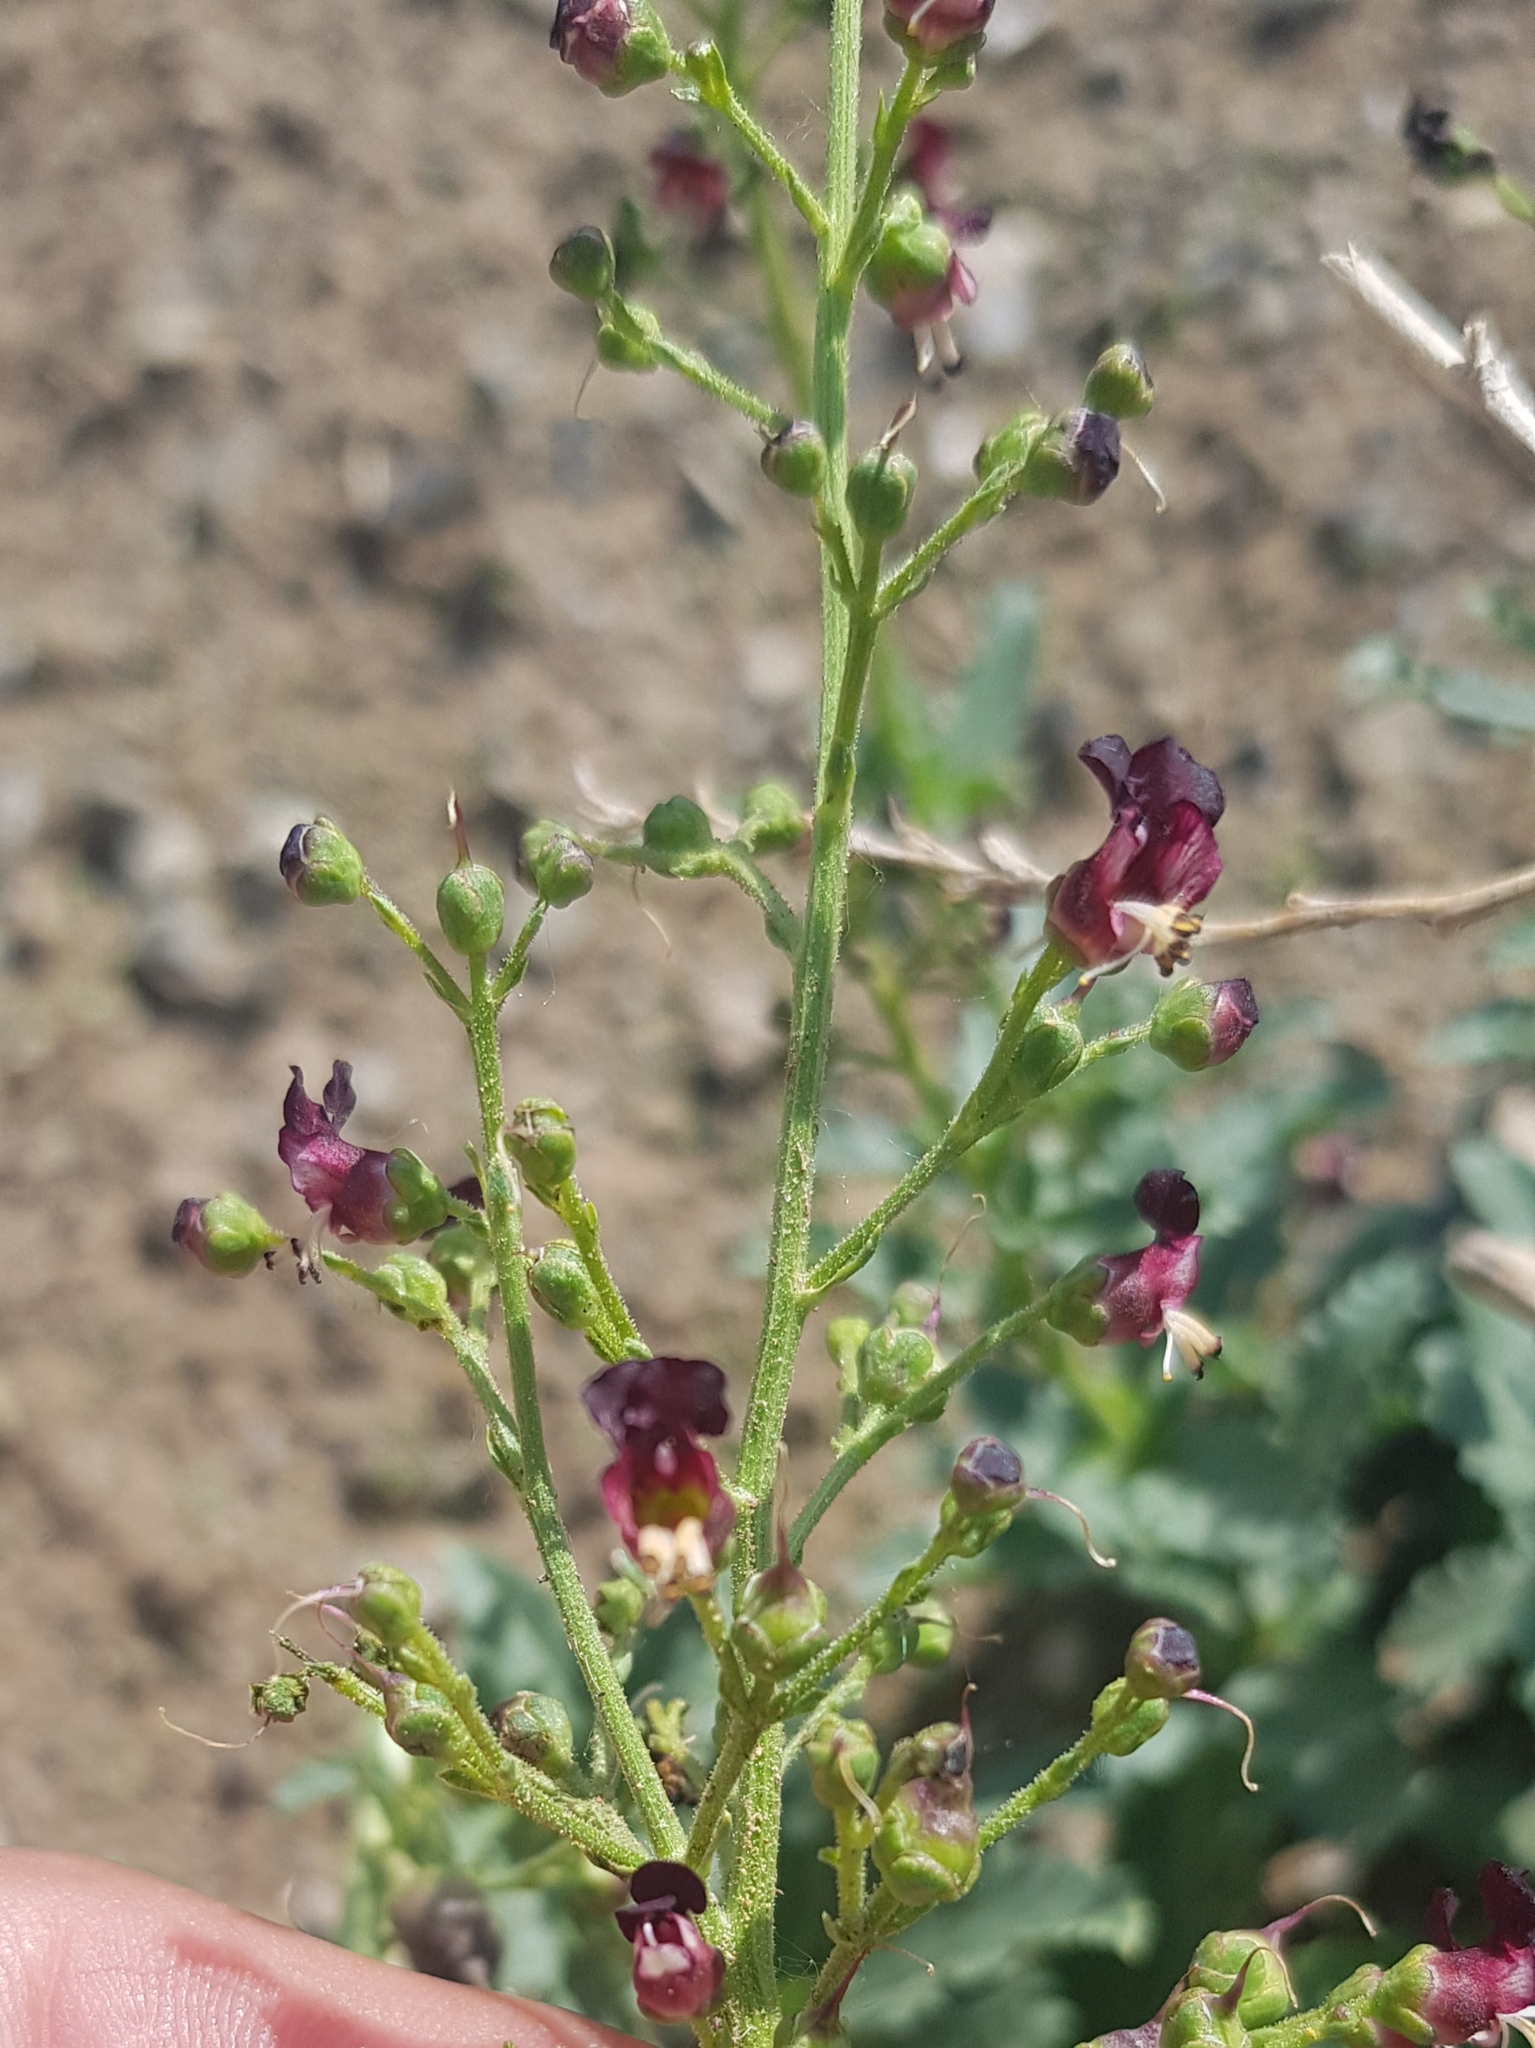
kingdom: Plantae
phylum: Tracheophyta
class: Magnoliopsida
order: Lamiales
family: Scrophulariaceae
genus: Scrophularia
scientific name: Scrophularia incisa
